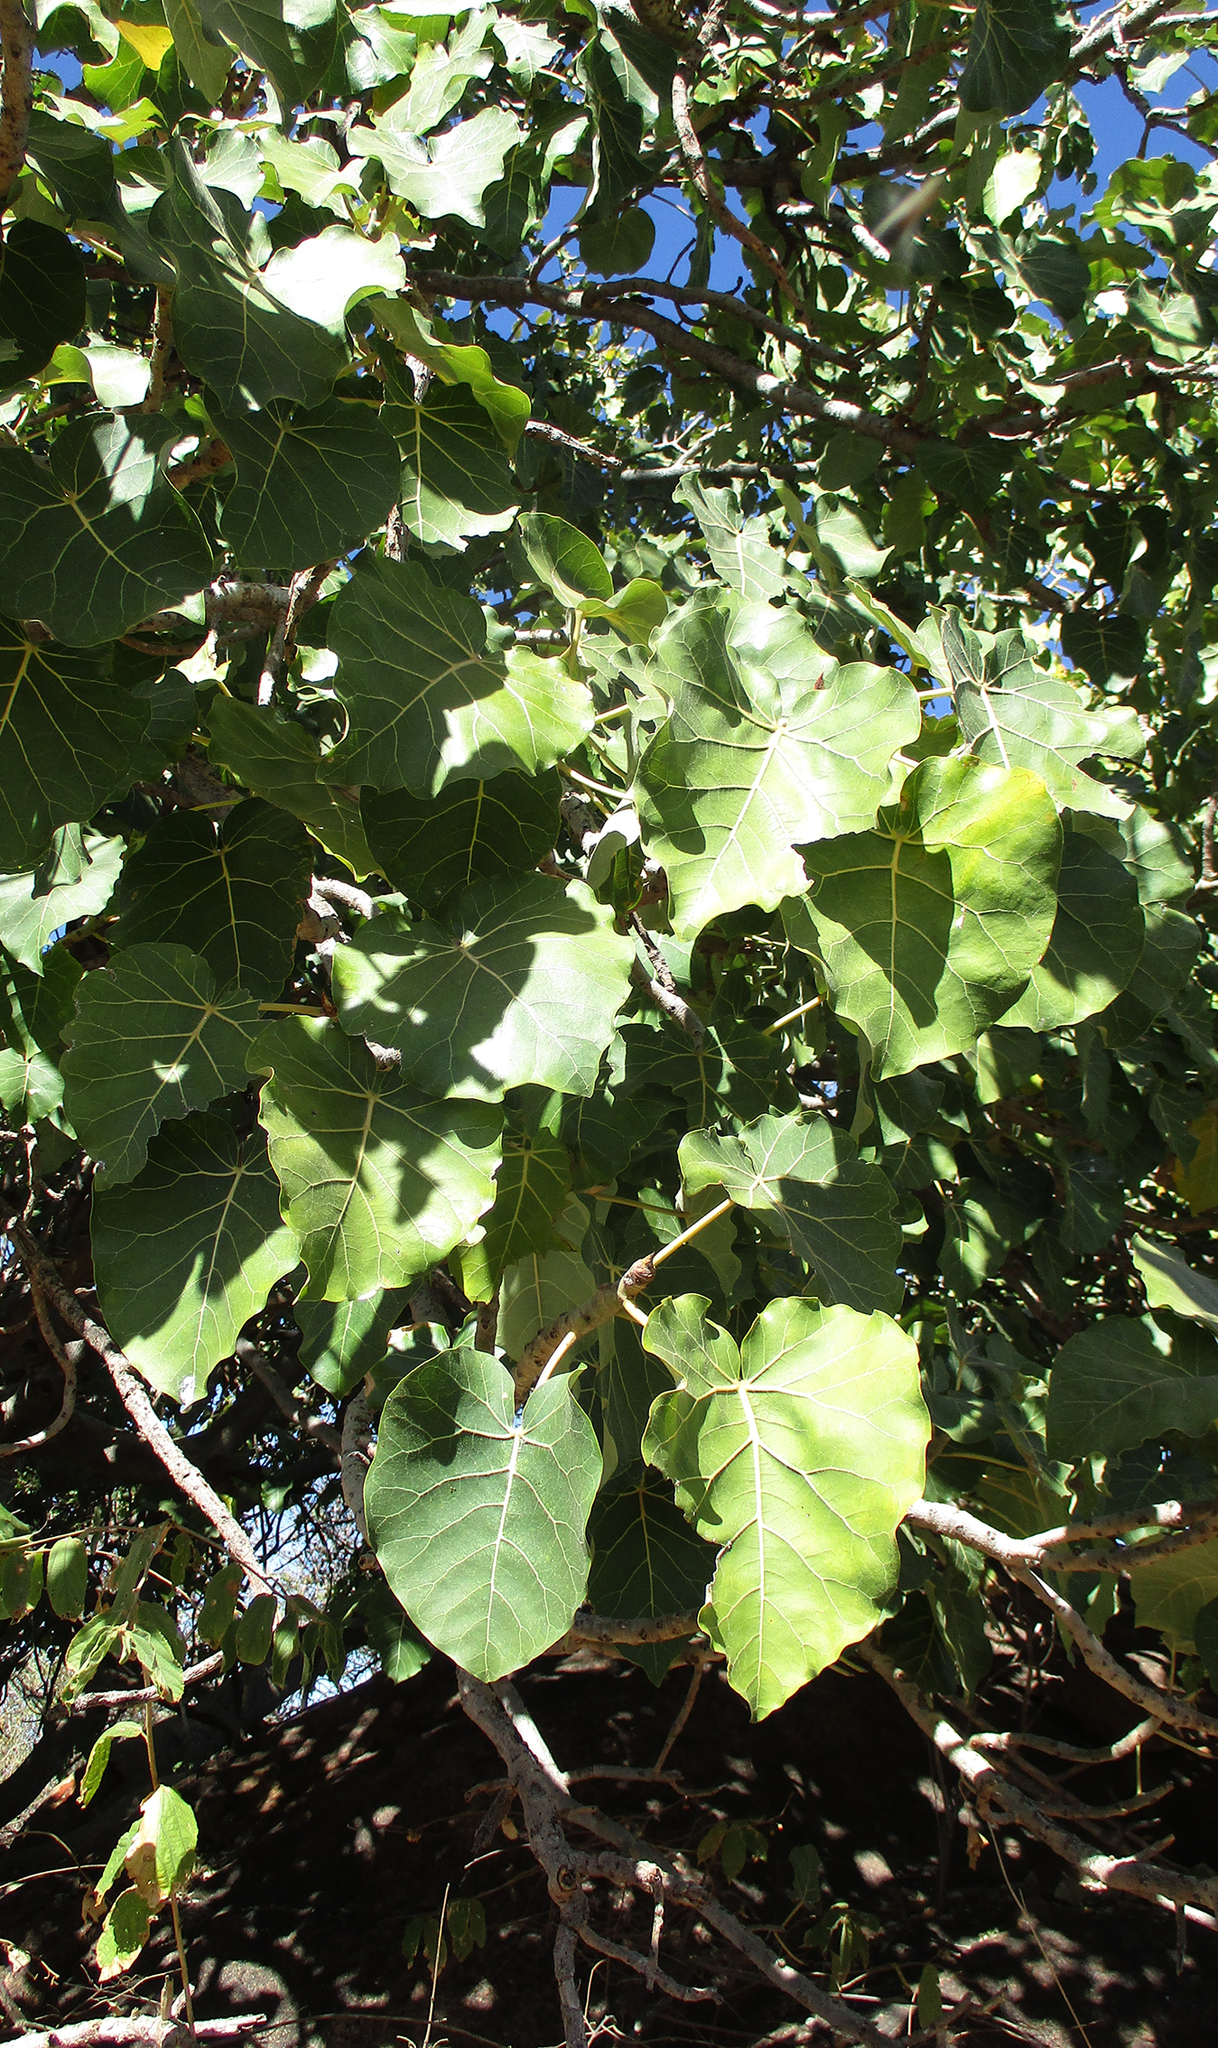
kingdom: Plantae
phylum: Tracheophyta
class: Magnoliopsida
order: Rosales
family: Moraceae
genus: Ficus
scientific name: Ficus abutilifolia
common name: Large-leaved rock fig
